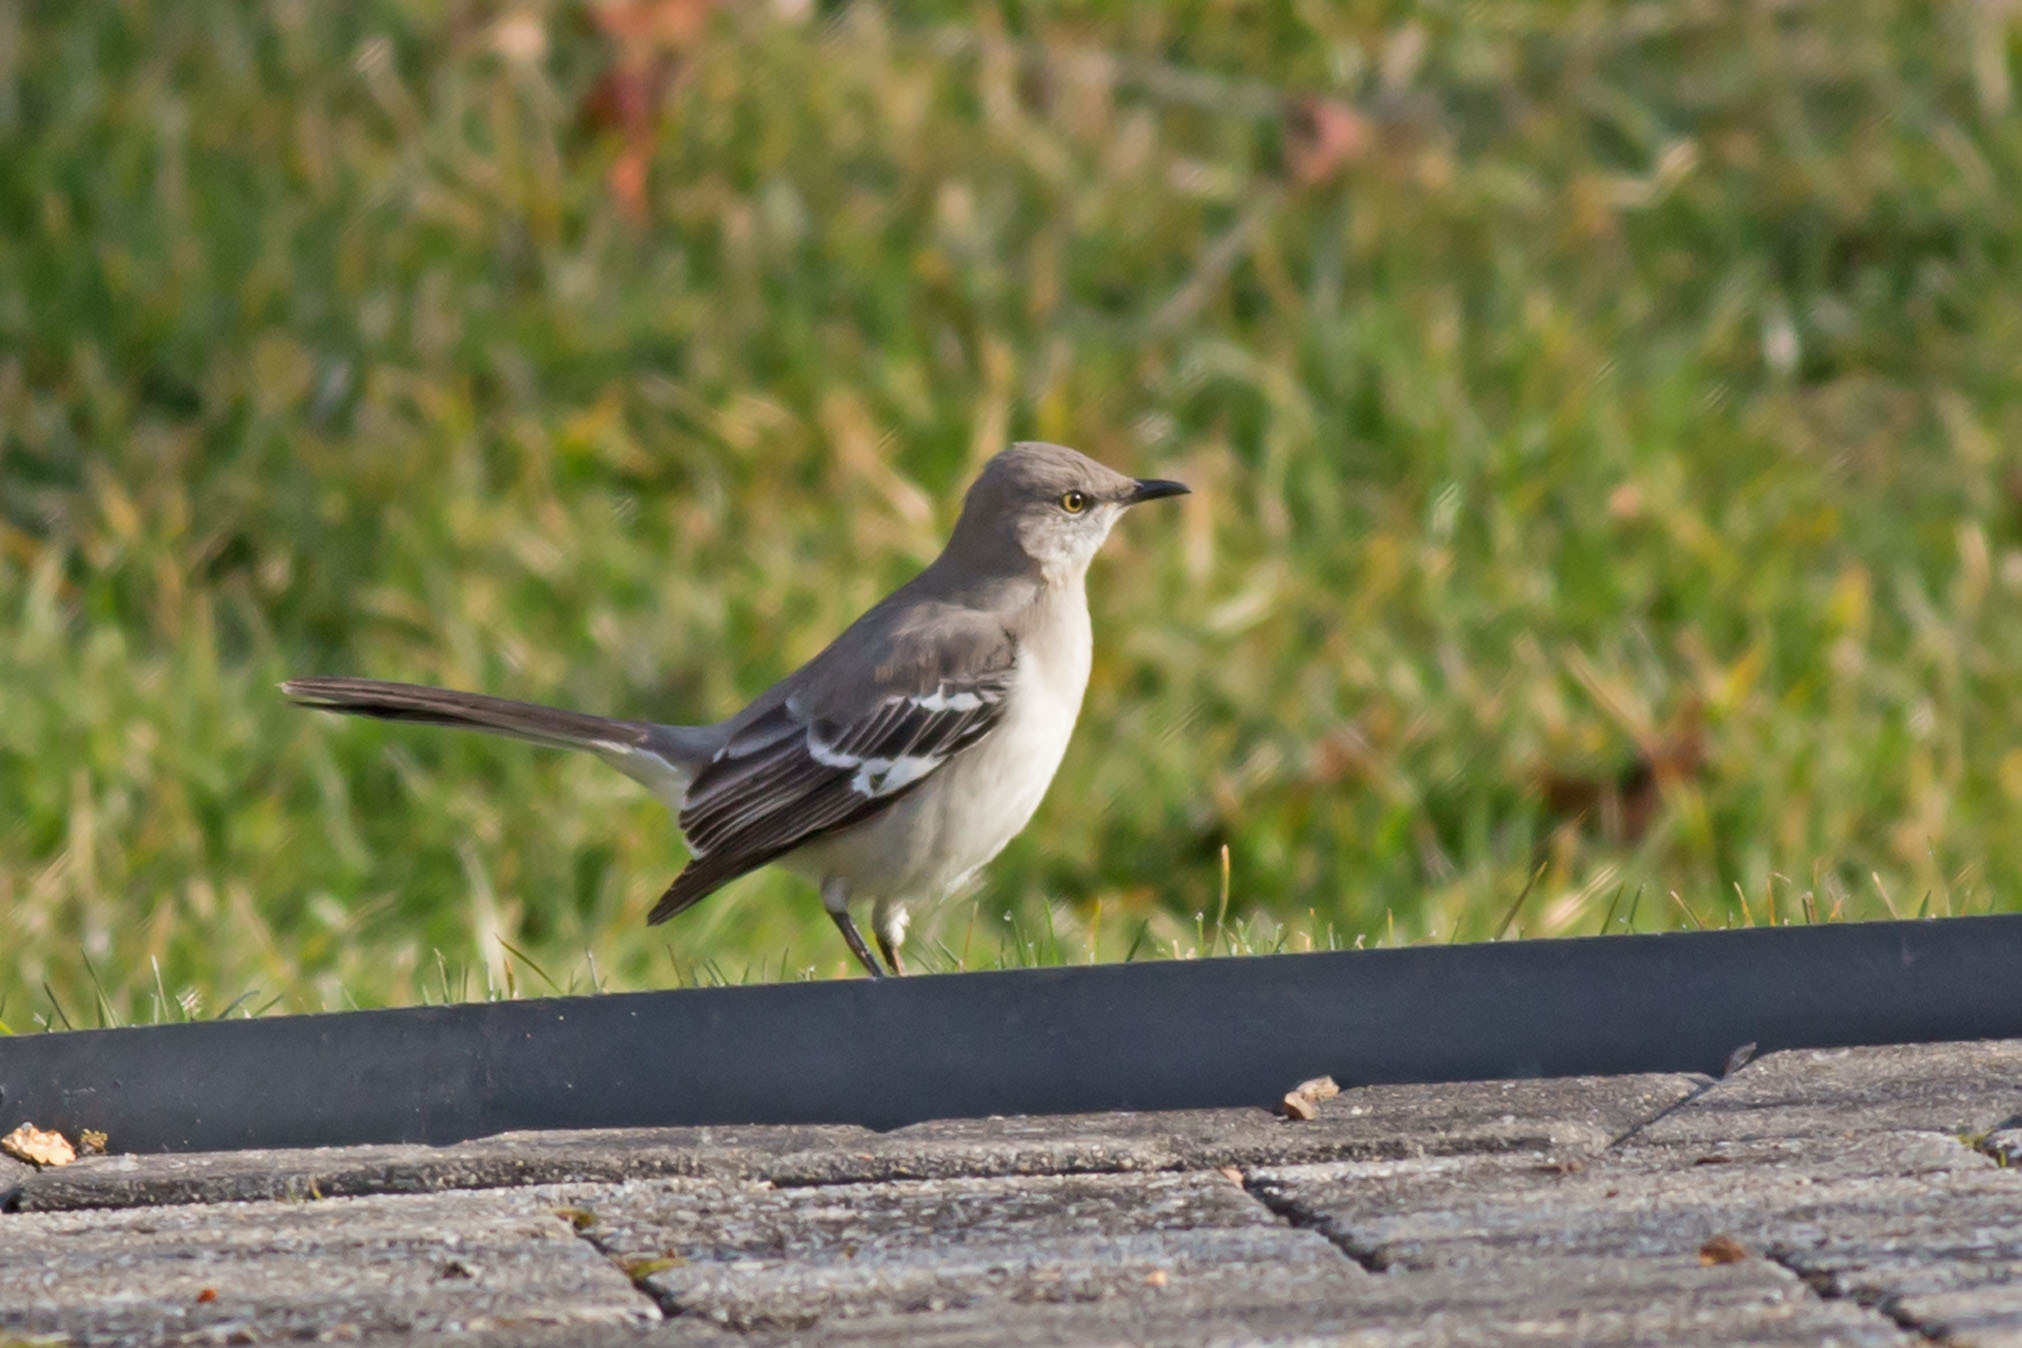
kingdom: Animalia
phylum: Chordata
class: Aves
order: Passeriformes
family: Mimidae
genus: Mimus
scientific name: Mimus polyglottos
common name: Northern mockingbird
